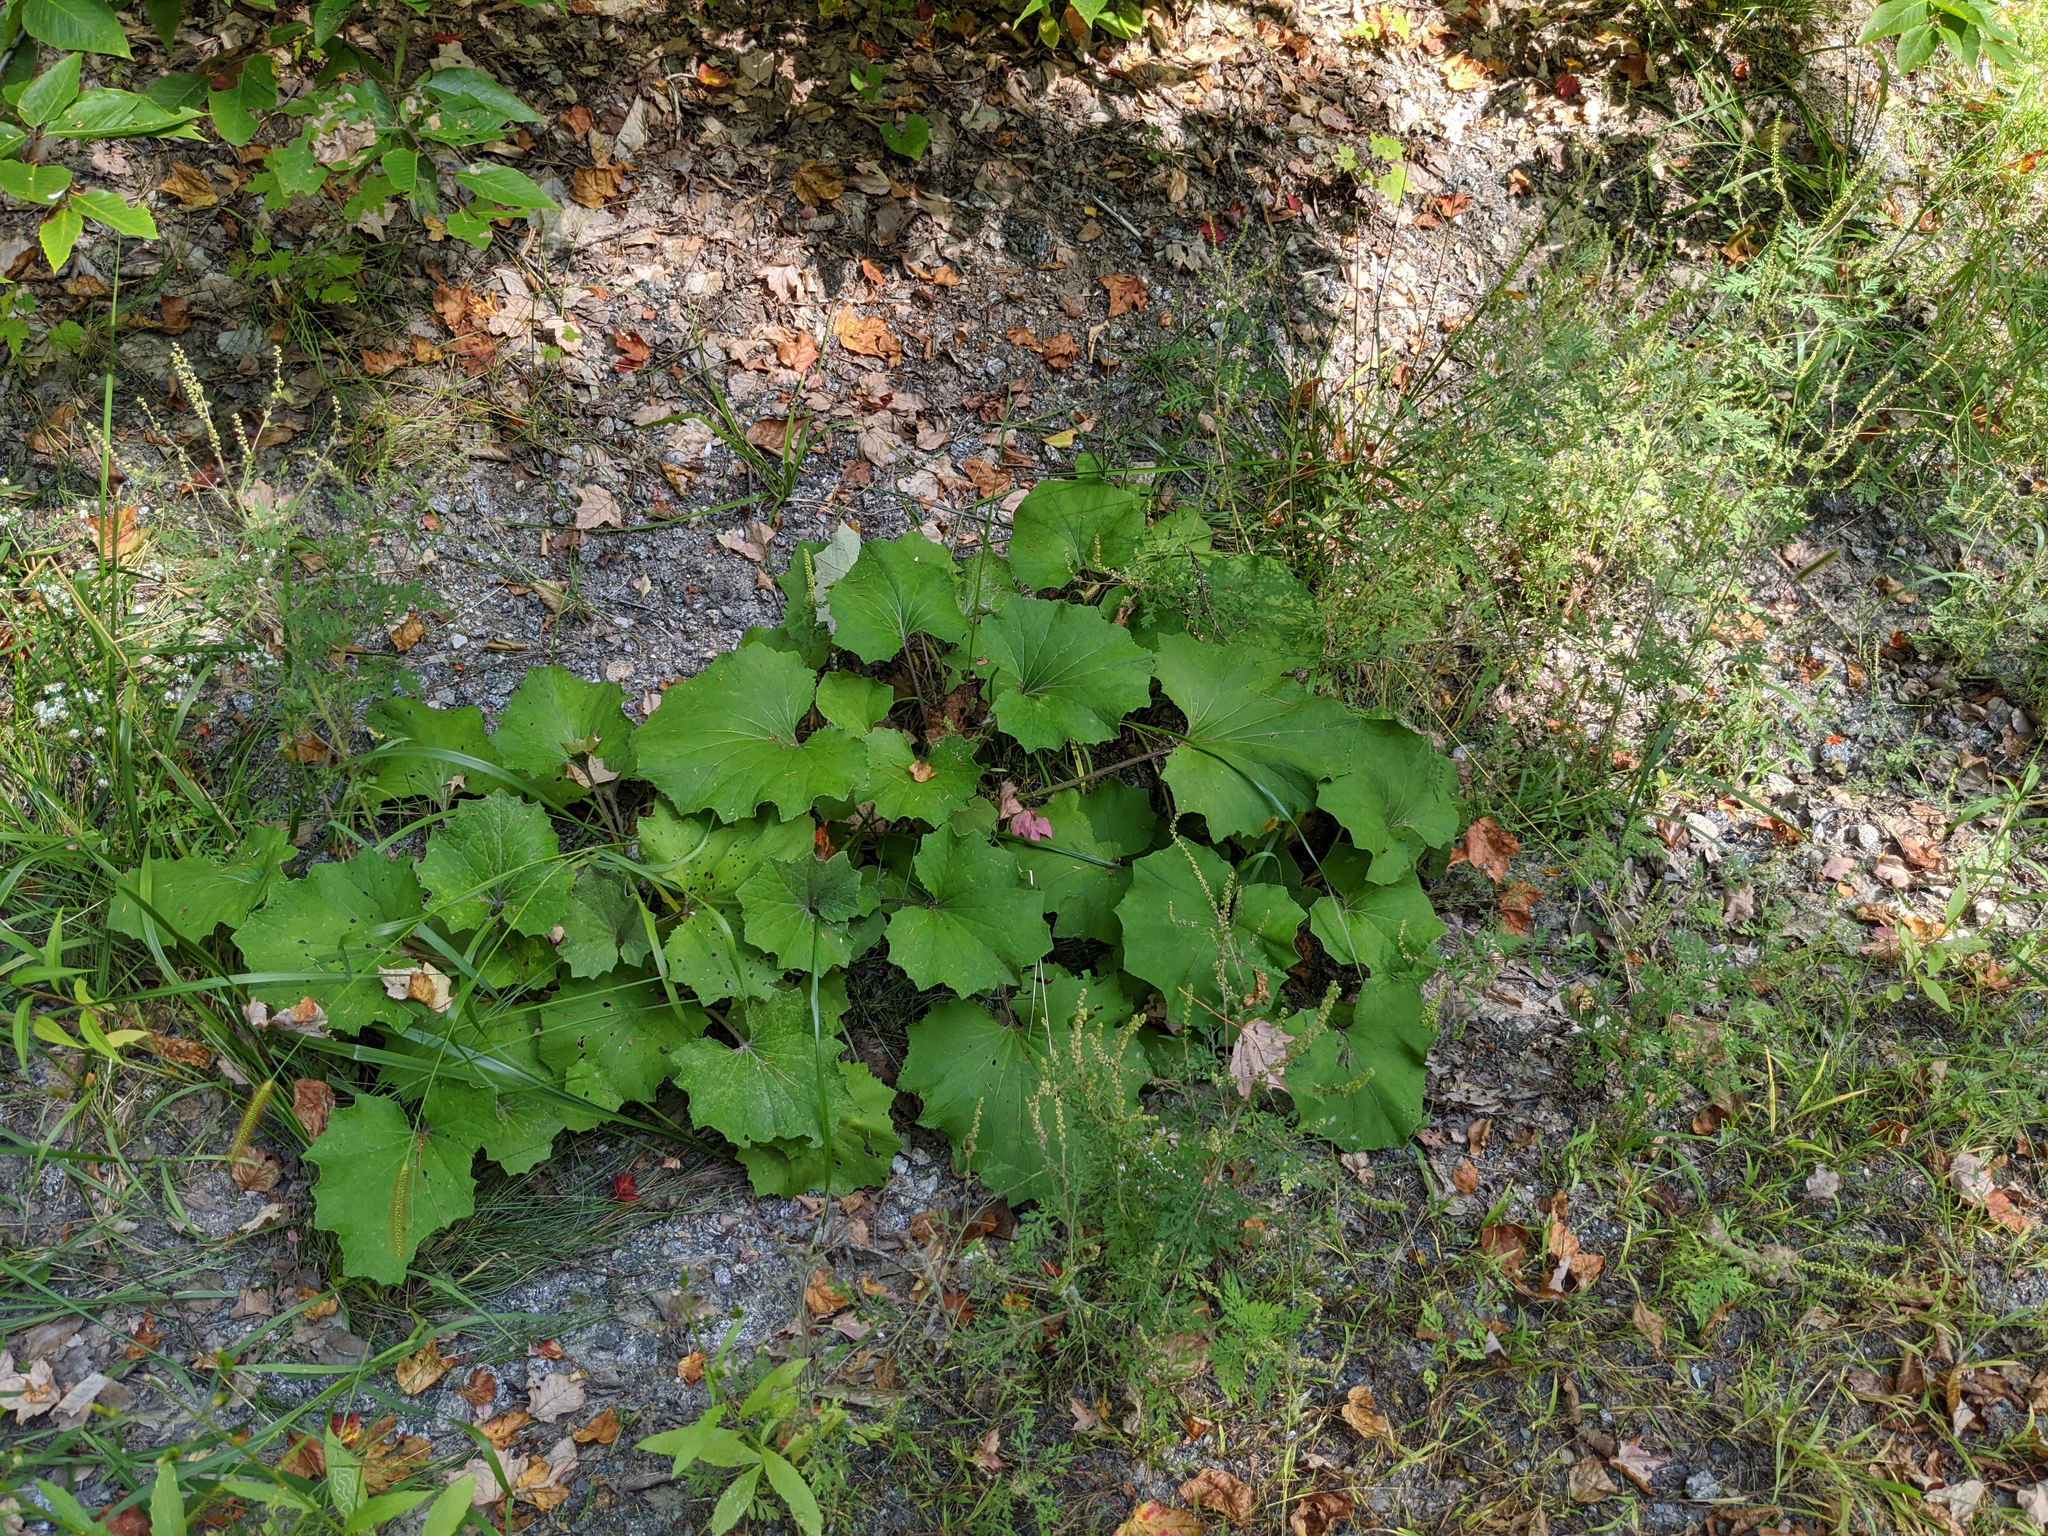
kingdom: Plantae
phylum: Tracheophyta
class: Magnoliopsida
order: Asterales
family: Asteraceae
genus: Tussilago
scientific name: Tussilago farfara
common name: Coltsfoot
